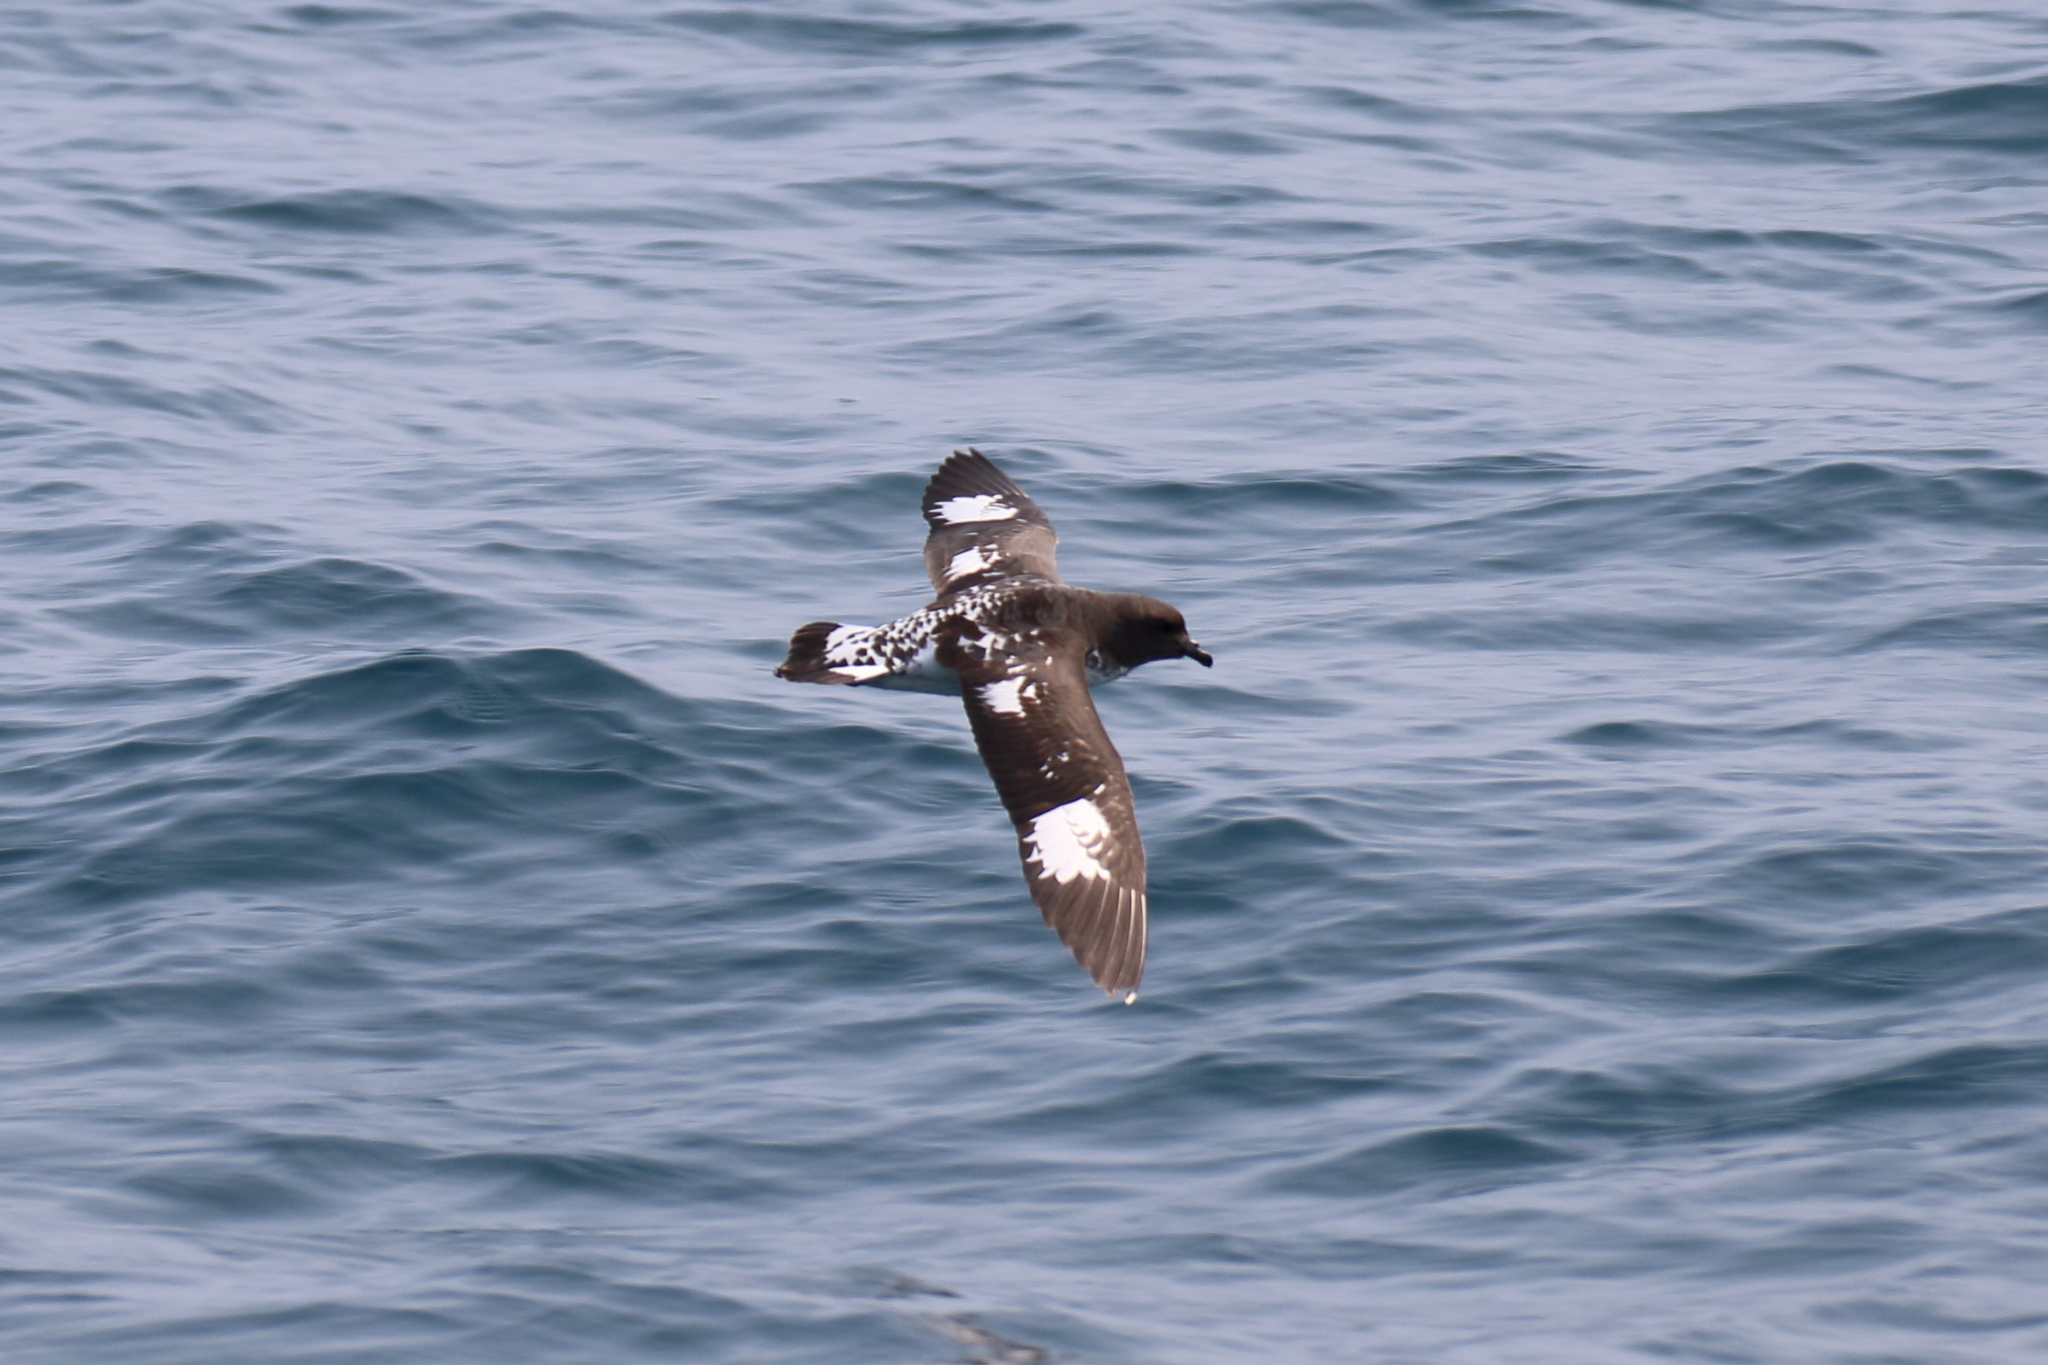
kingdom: Animalia
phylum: Chordata
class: Aves
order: Procellariiformes
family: Procellariidae
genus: Daption
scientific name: Daption capense
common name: Cape petrel
